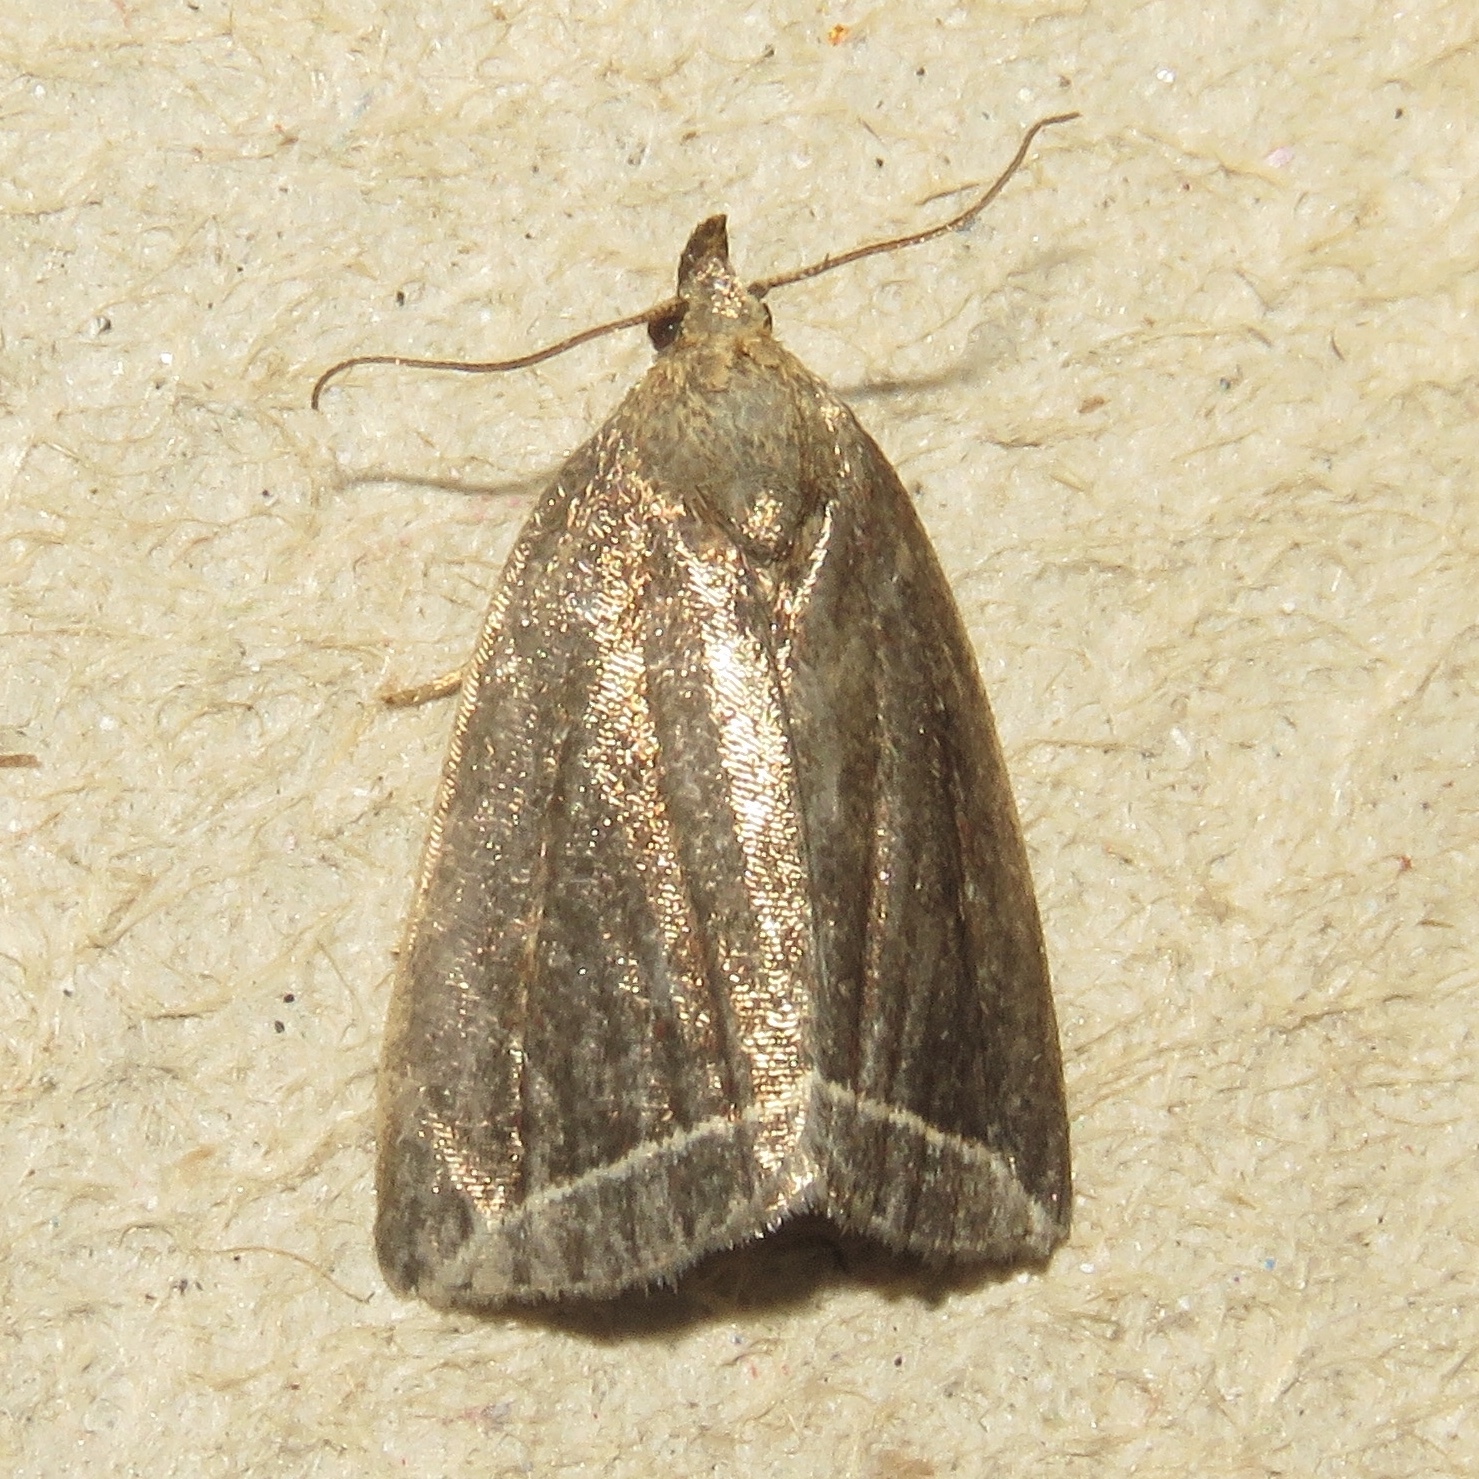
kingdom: Animalia
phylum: Arthropoda
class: Insecta
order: Lepidoptera
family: Erebidae
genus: Capis
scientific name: Capis curvata
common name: Curved halter moth
